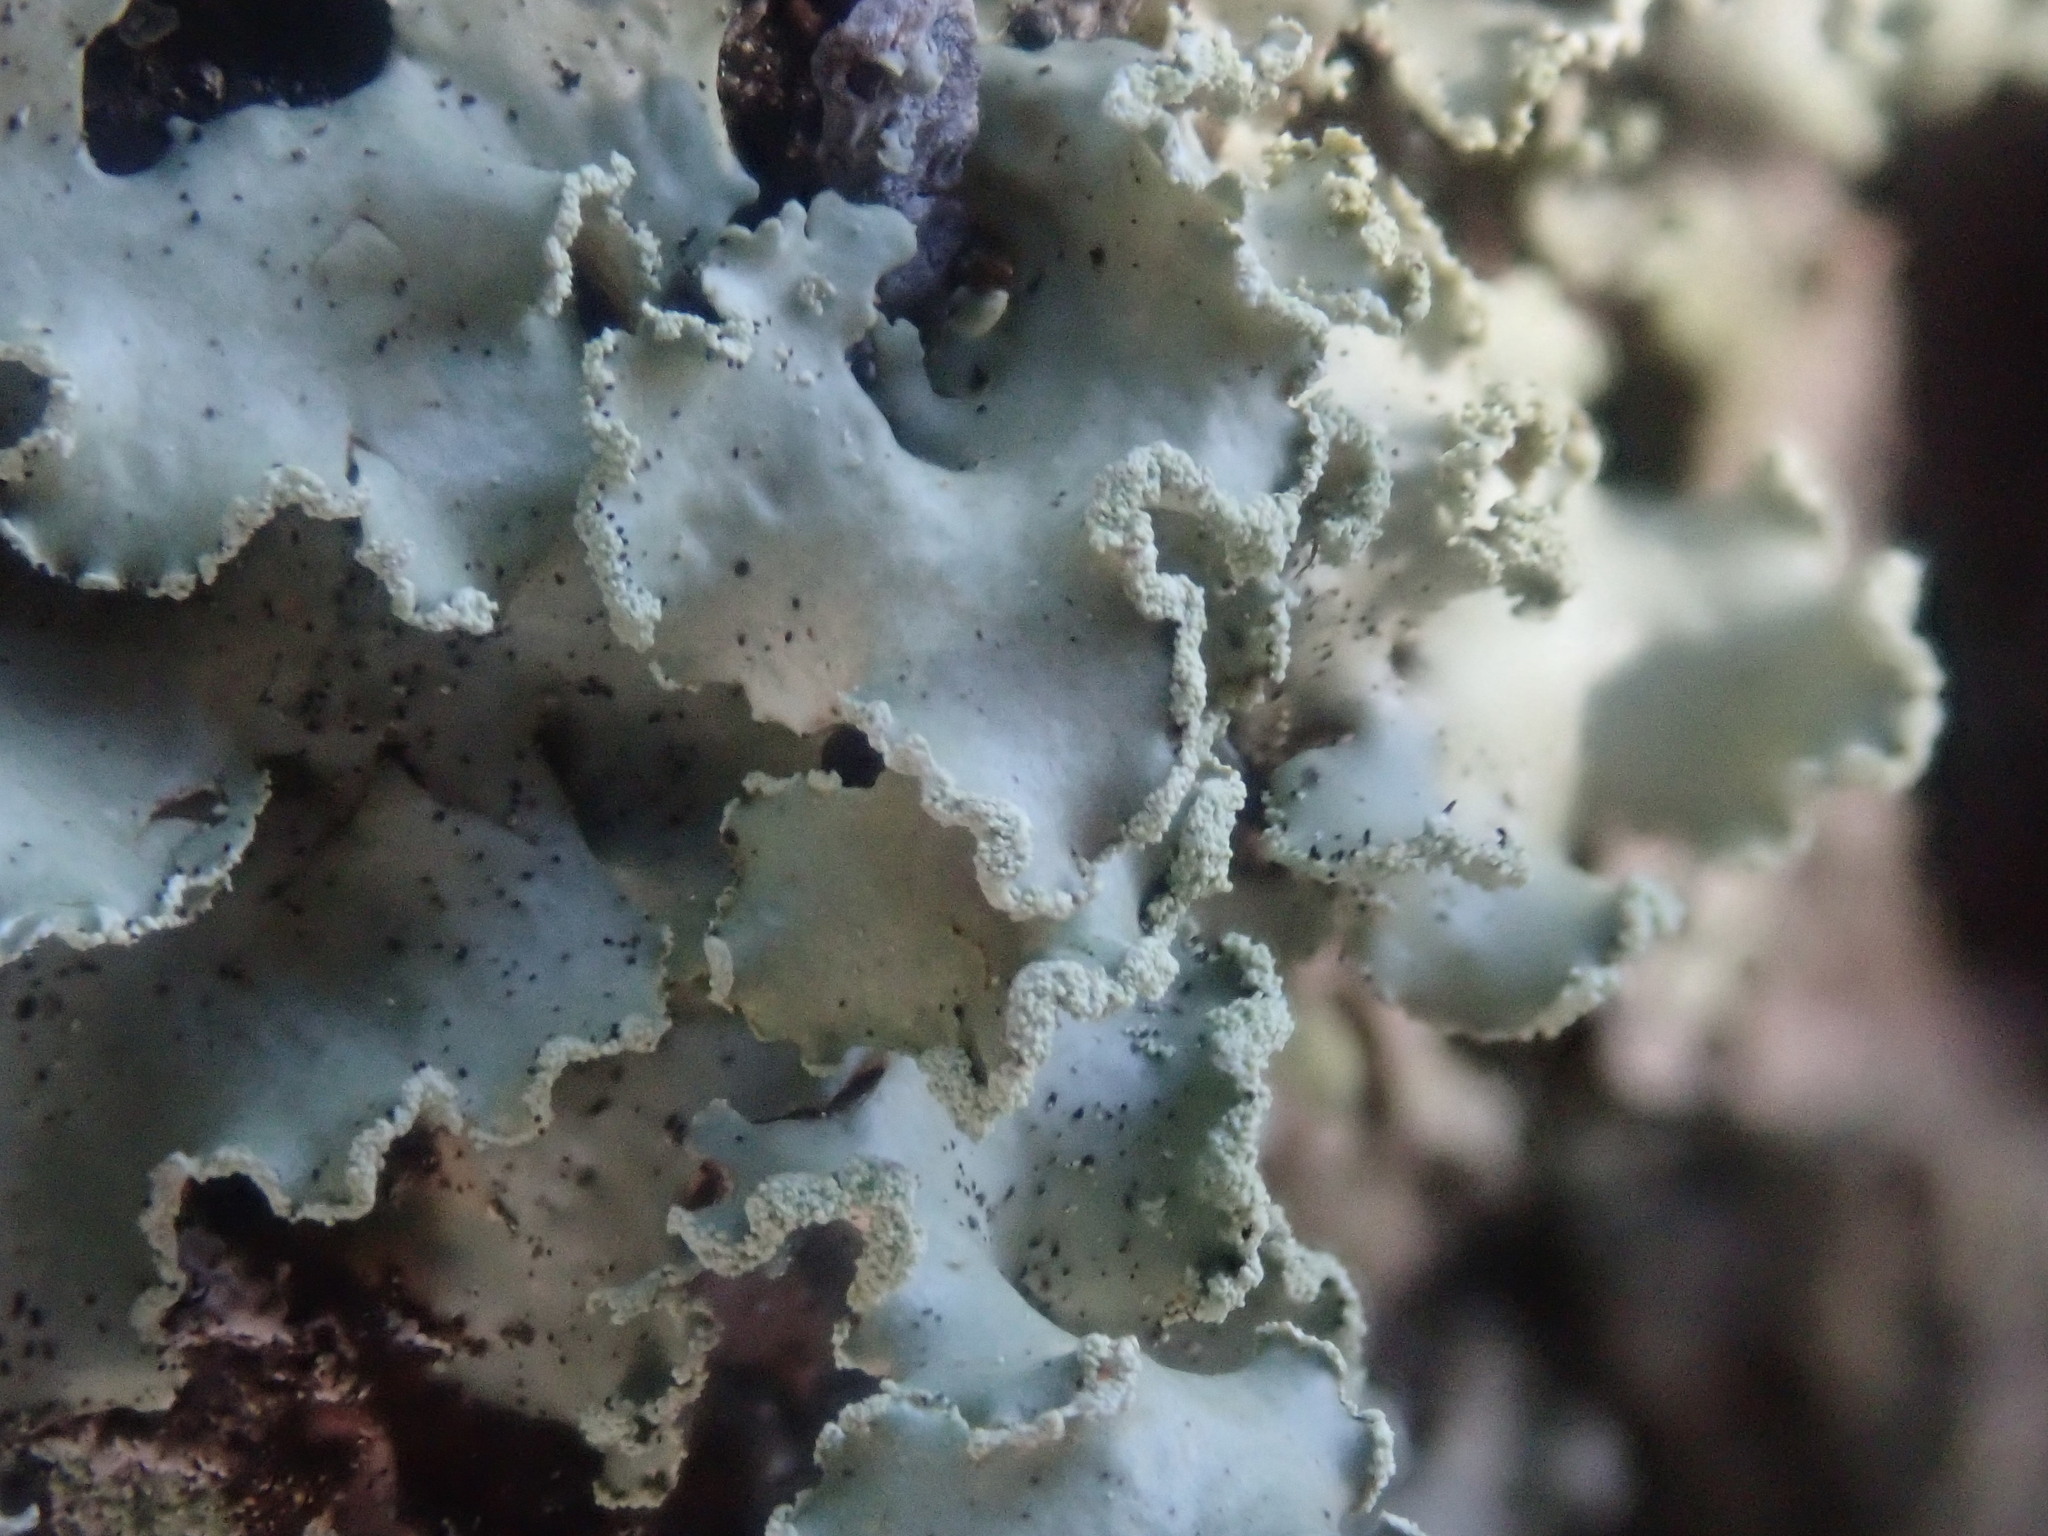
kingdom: Fungi
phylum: Ascomycota
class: Lecanoromycetes
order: Lecanorales
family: Parmeliaceae
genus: Usnocetraria
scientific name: Usnocetraria oakesiana
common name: Yellow ribbon lichen
